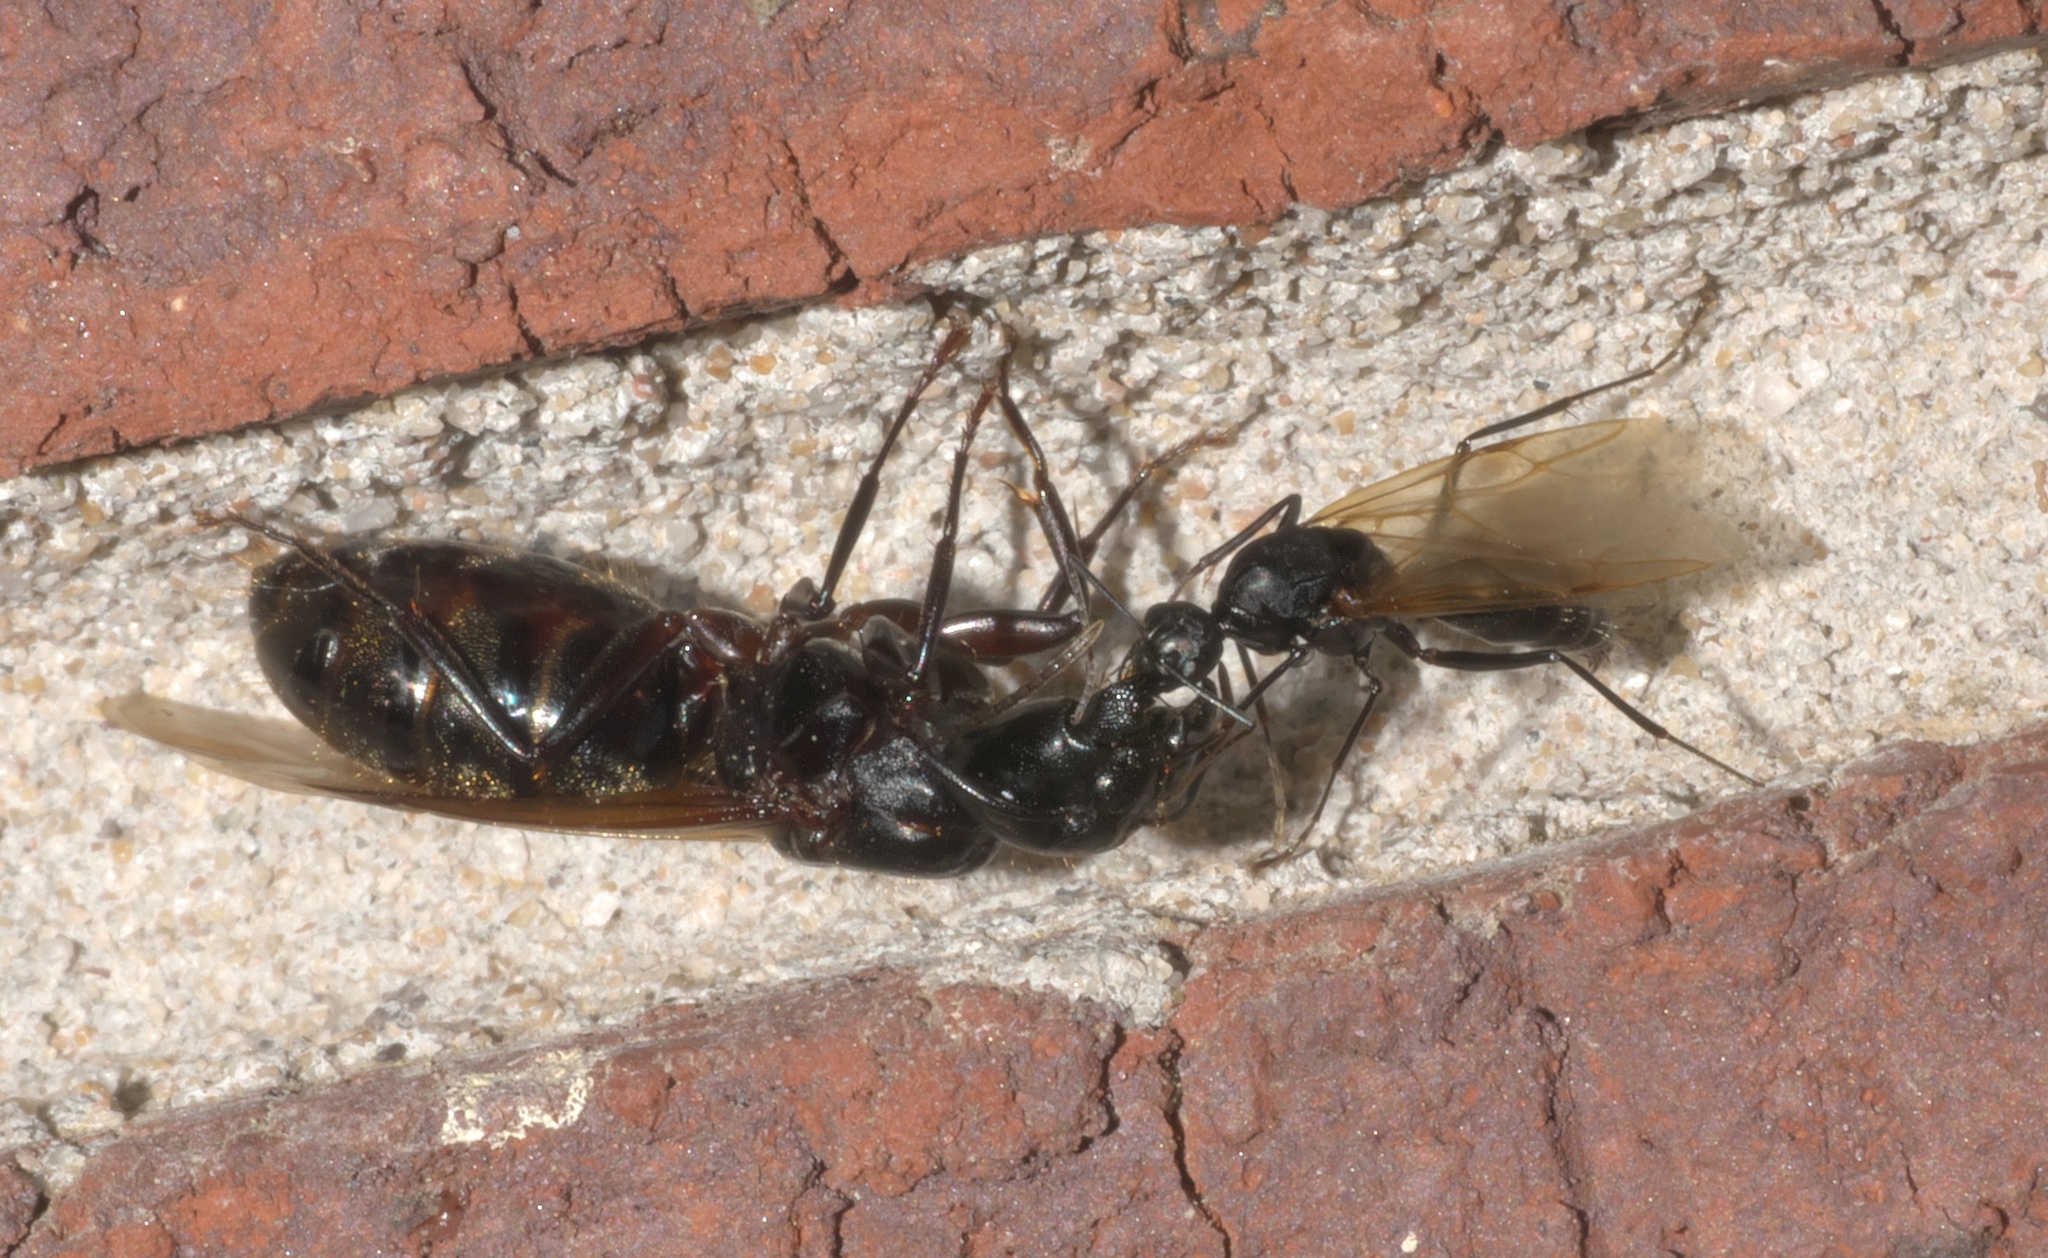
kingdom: Animalia
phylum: Arthropoda
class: Insecta
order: Hymenoptera
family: Formicidae
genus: Camponotus
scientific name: Camponotus pennsylvanicus
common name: Black carpenter ant
